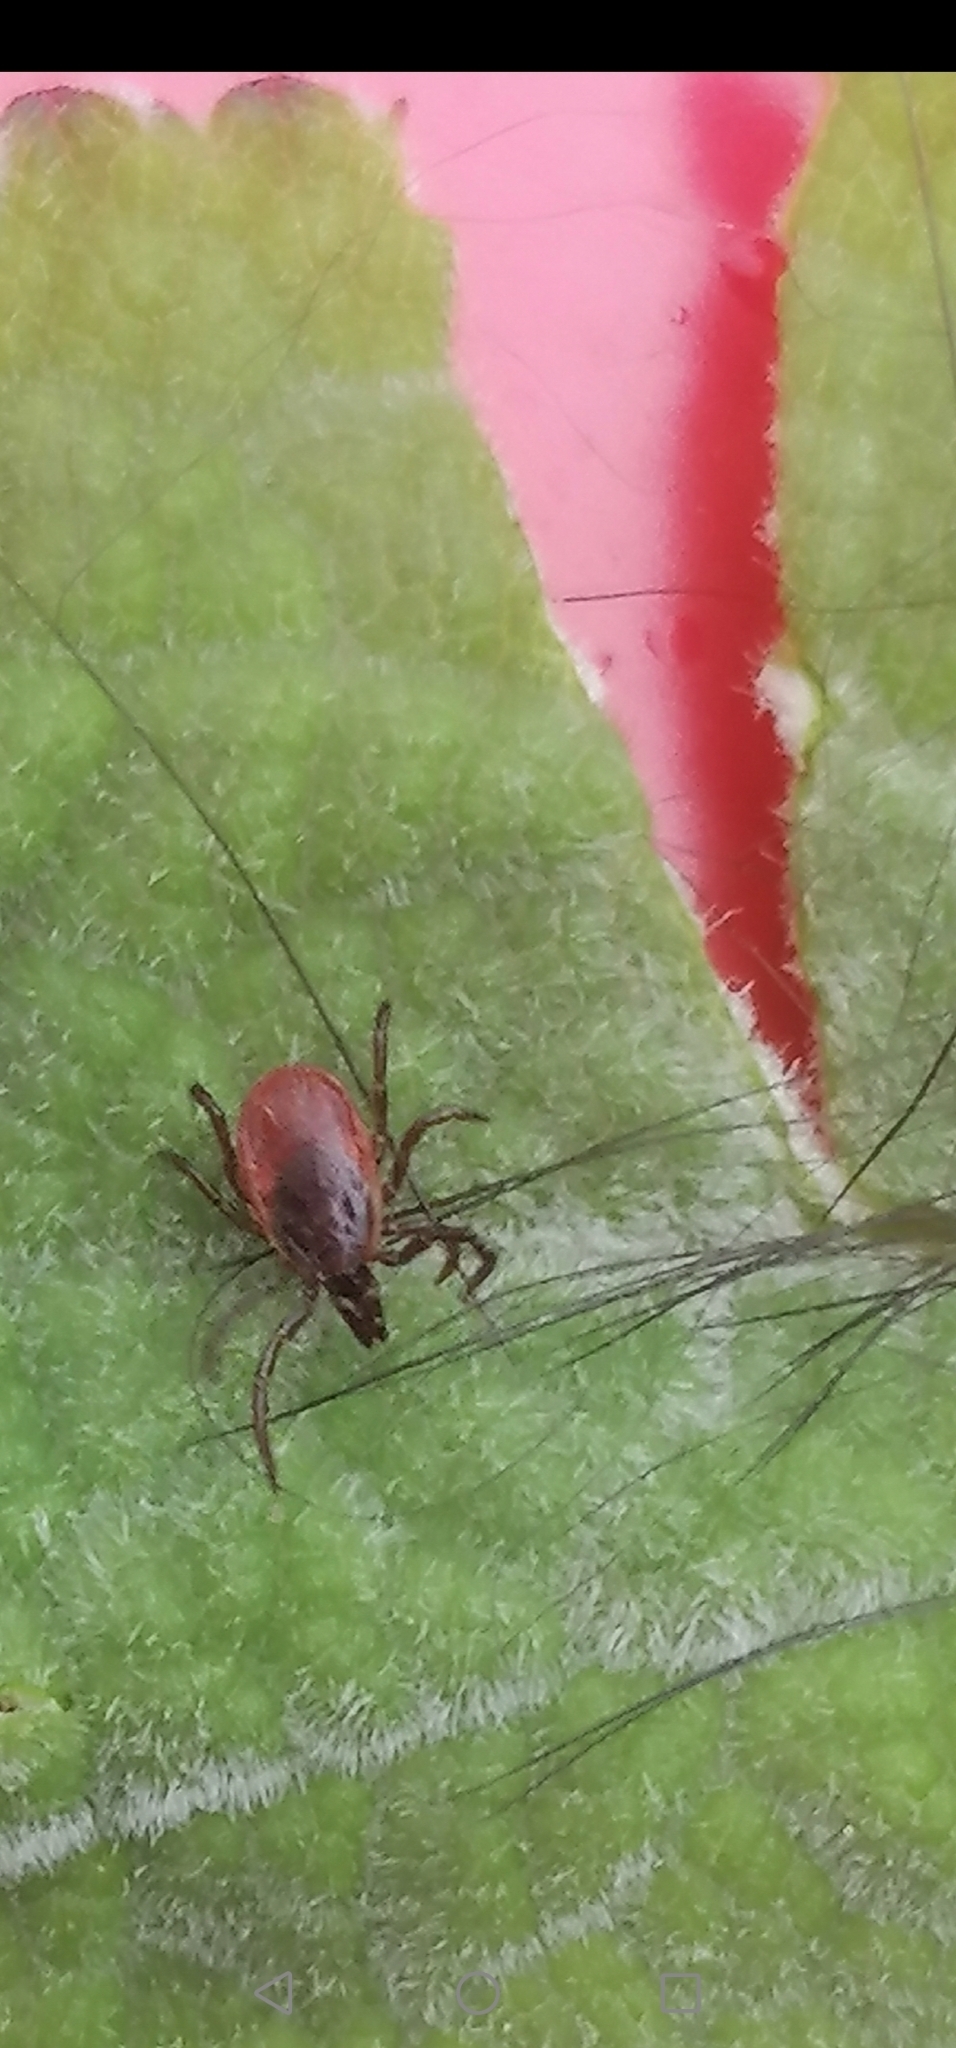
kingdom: Animalia
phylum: Arthropoda
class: Arachnida
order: Ixodida
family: Ixodidae
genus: Ixodes
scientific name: Ixodes ricinus
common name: Castor bean tick
